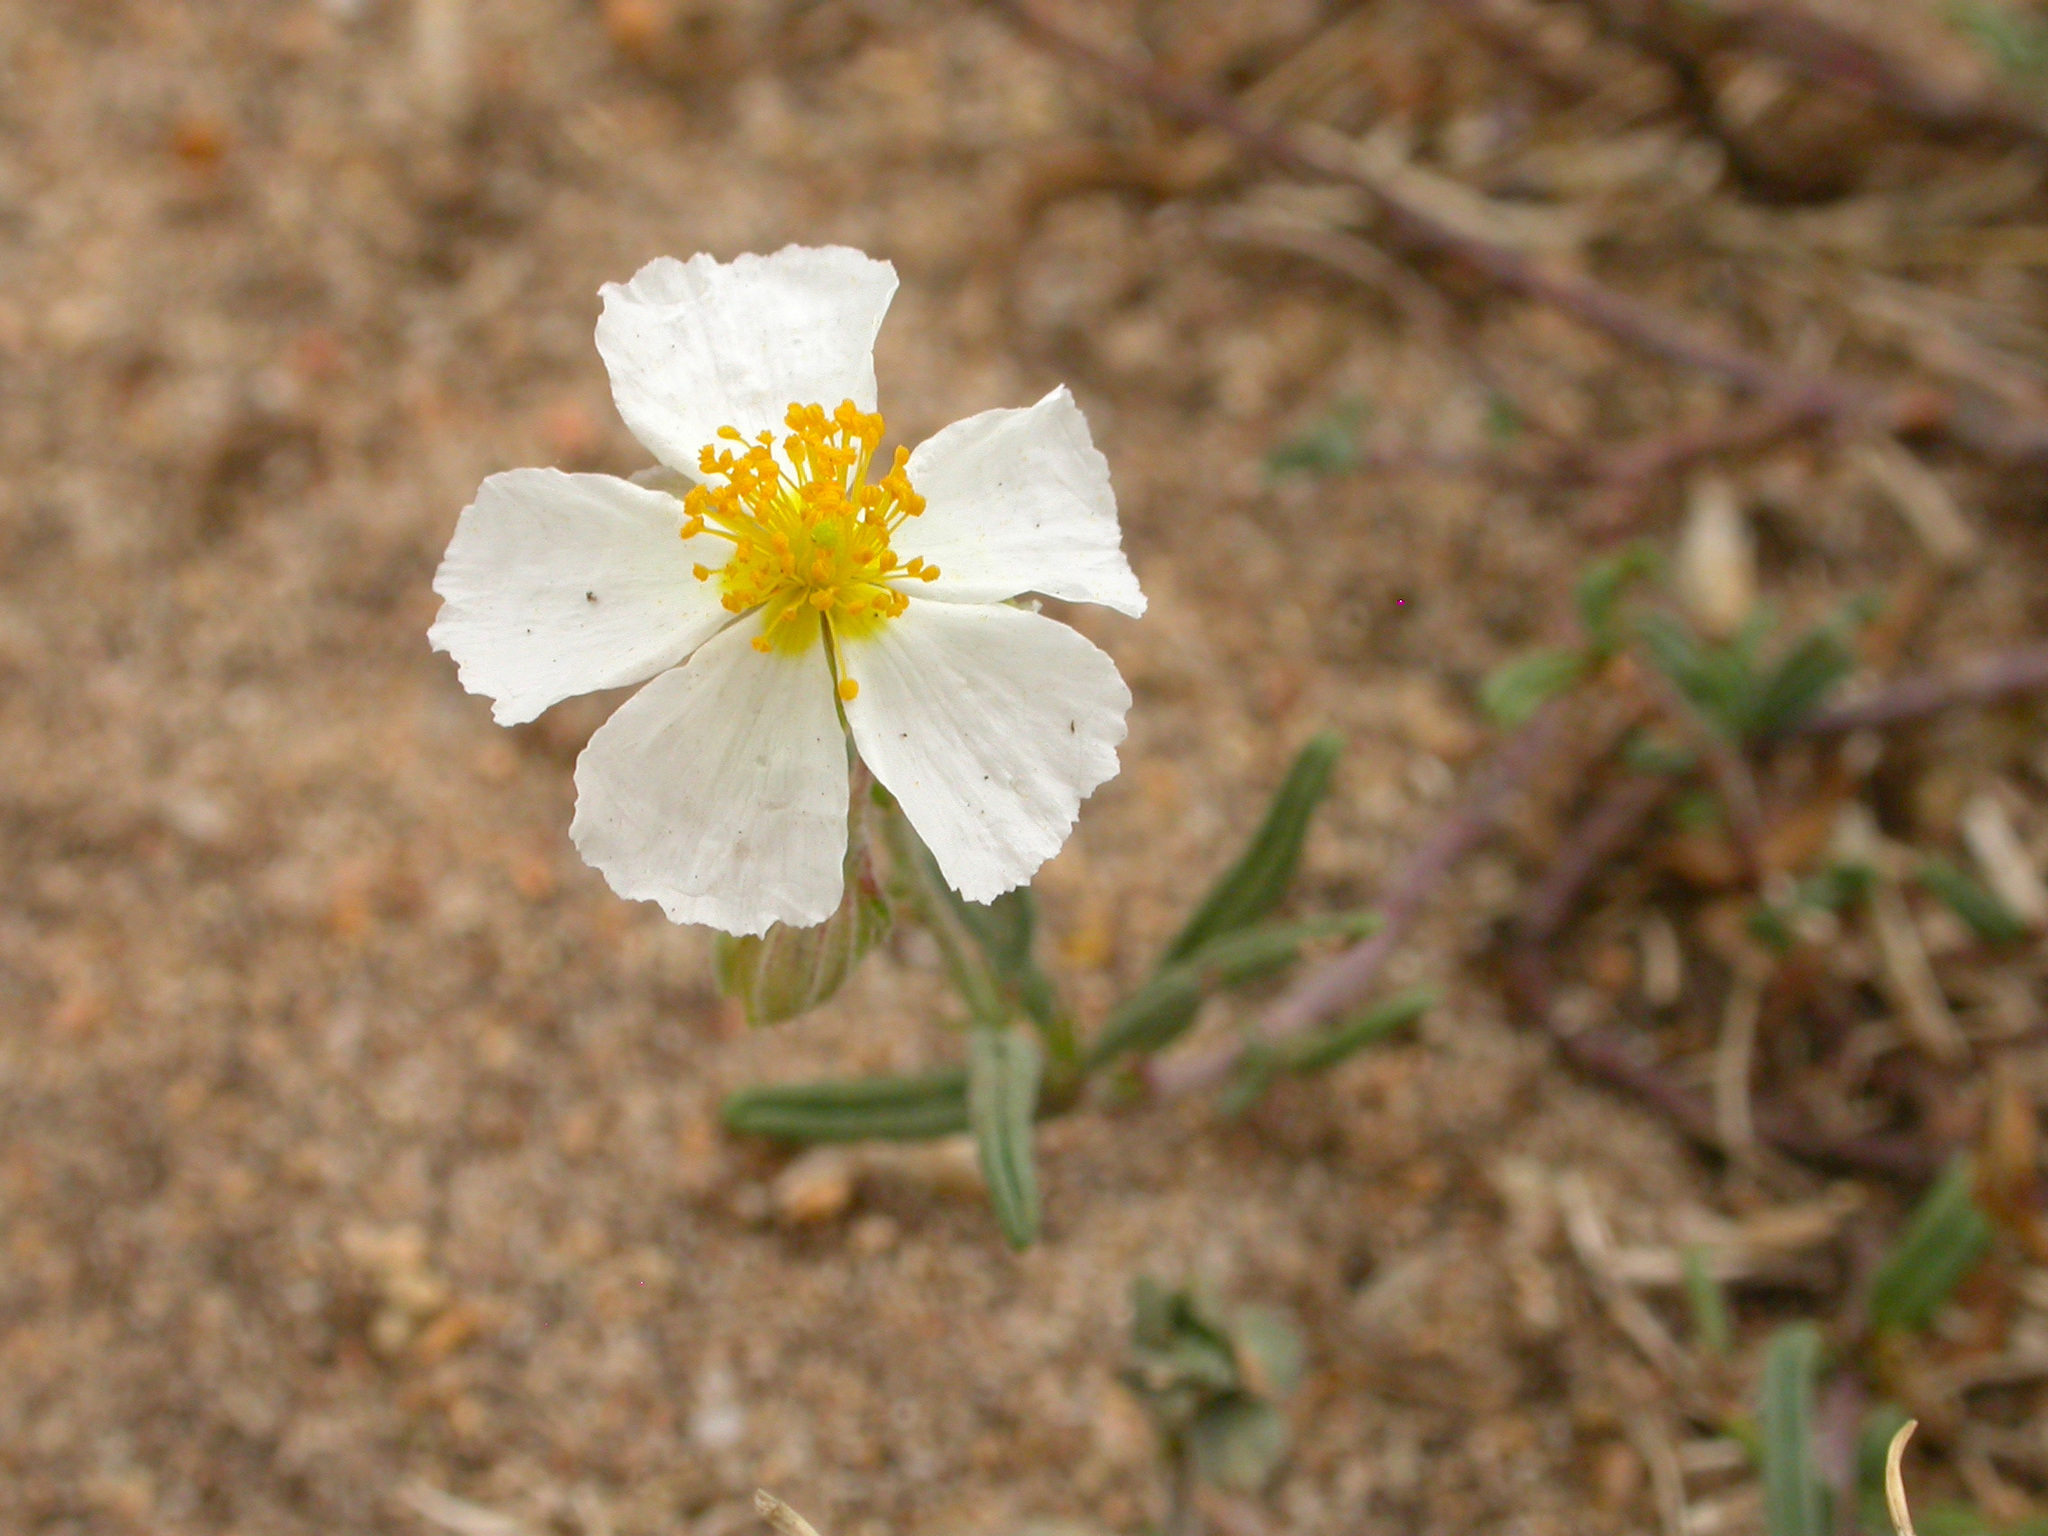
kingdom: Plantae
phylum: Tracheophyta
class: Magnoliopsida
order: Malvales
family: Cistaceae
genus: Helianthemum
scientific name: Helianthemum apenninum
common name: White rock-rose
